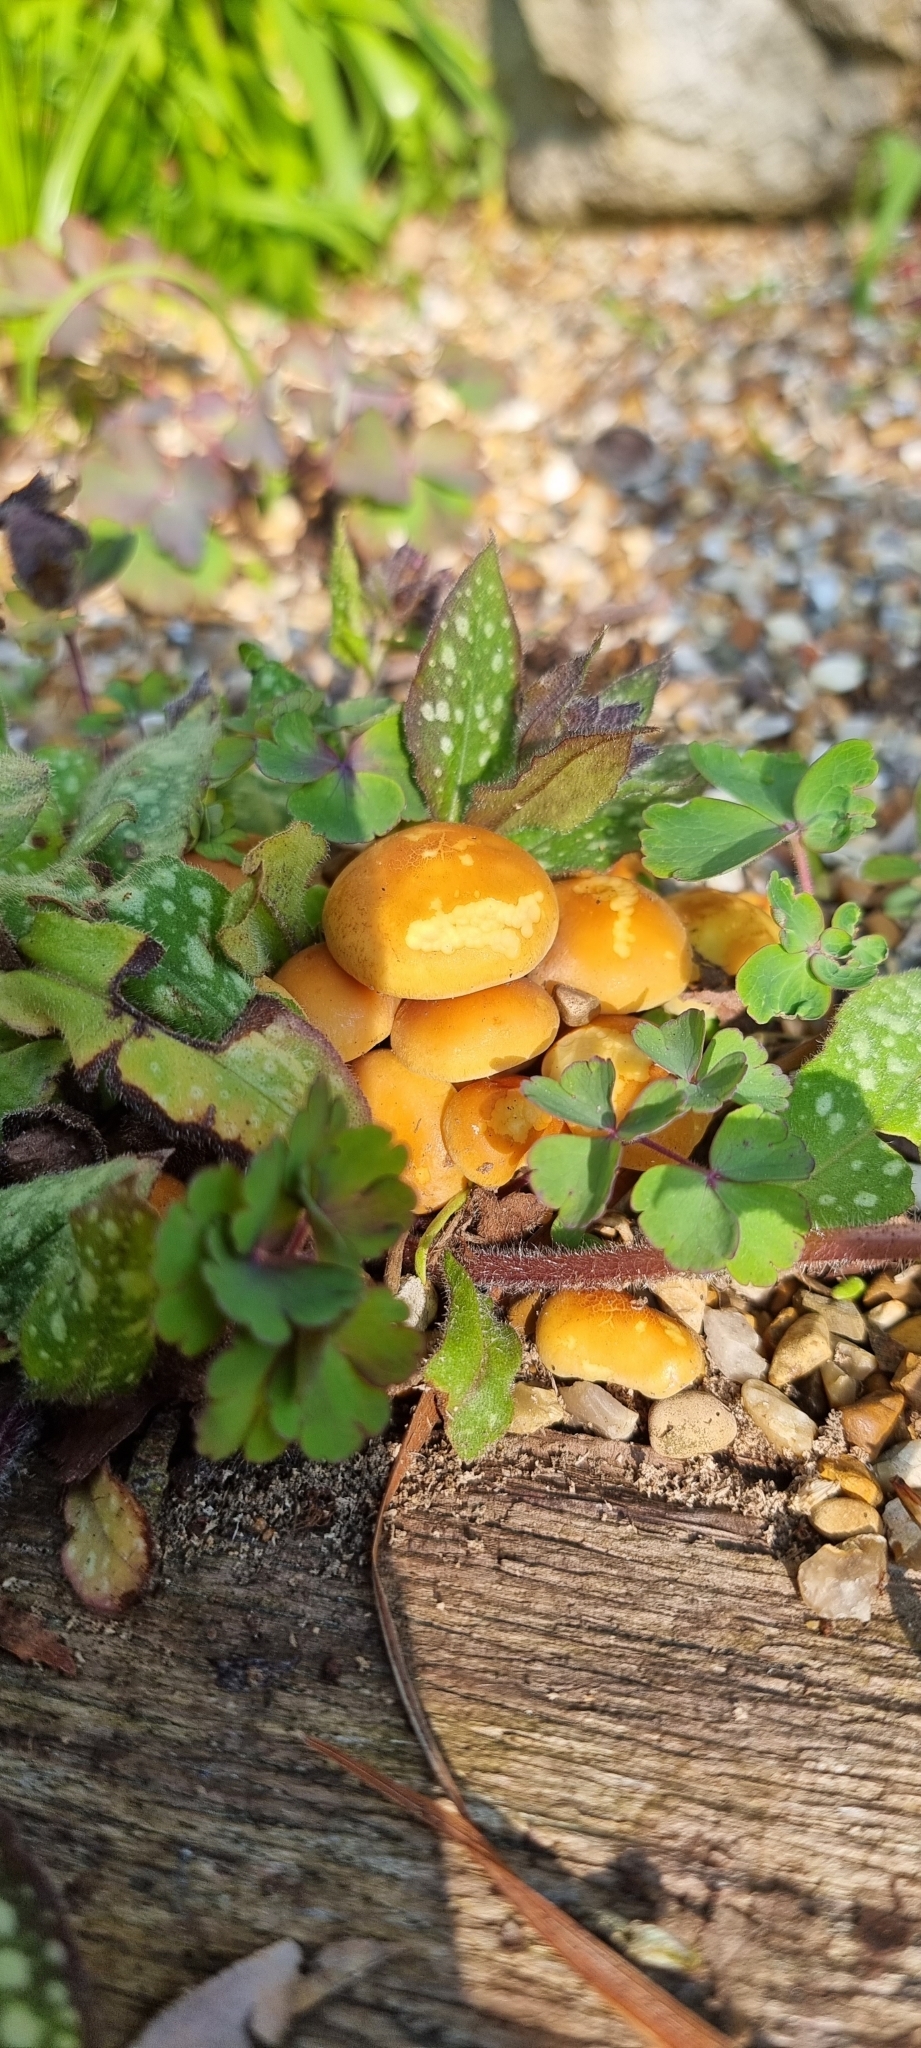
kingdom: Fungi
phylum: Basidiomycota
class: Agaricomycetes
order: Agaricales
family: Strophariaceae
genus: Hypholoma
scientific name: Hypholoma fasciculare
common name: Sulphur tuft
